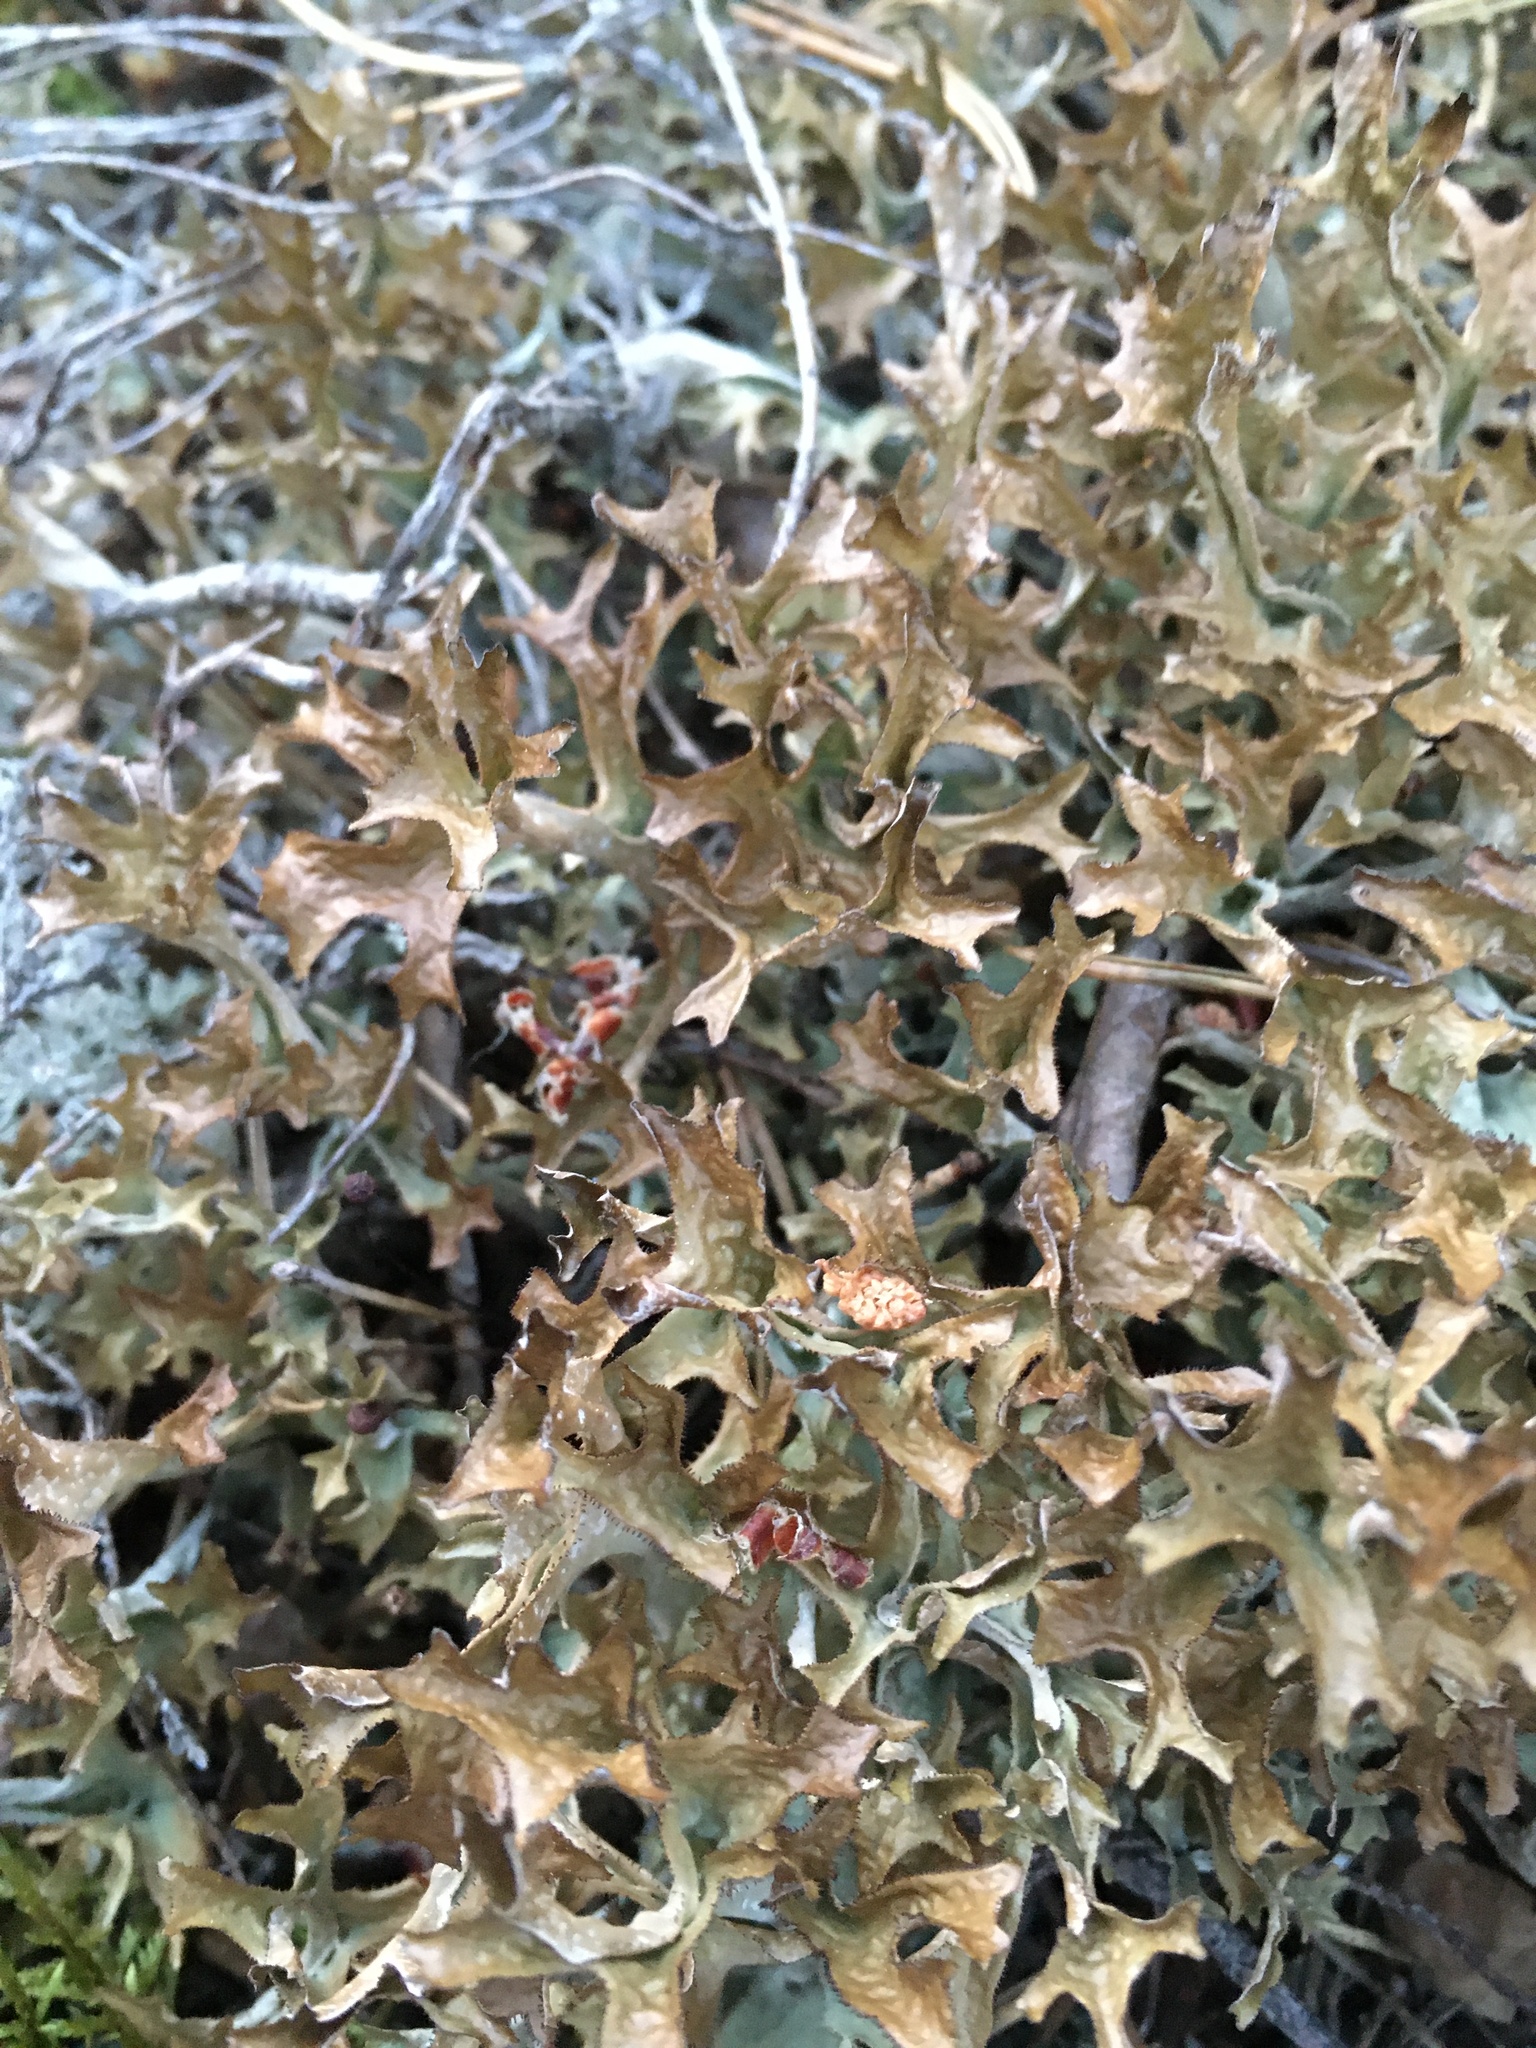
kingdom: Fungi
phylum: Ascomycota
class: Lecanoromycetes
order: Lecanorales
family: Parmeliaceae
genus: Cetraria
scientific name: Cetraria islandica
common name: Iceland lichen
